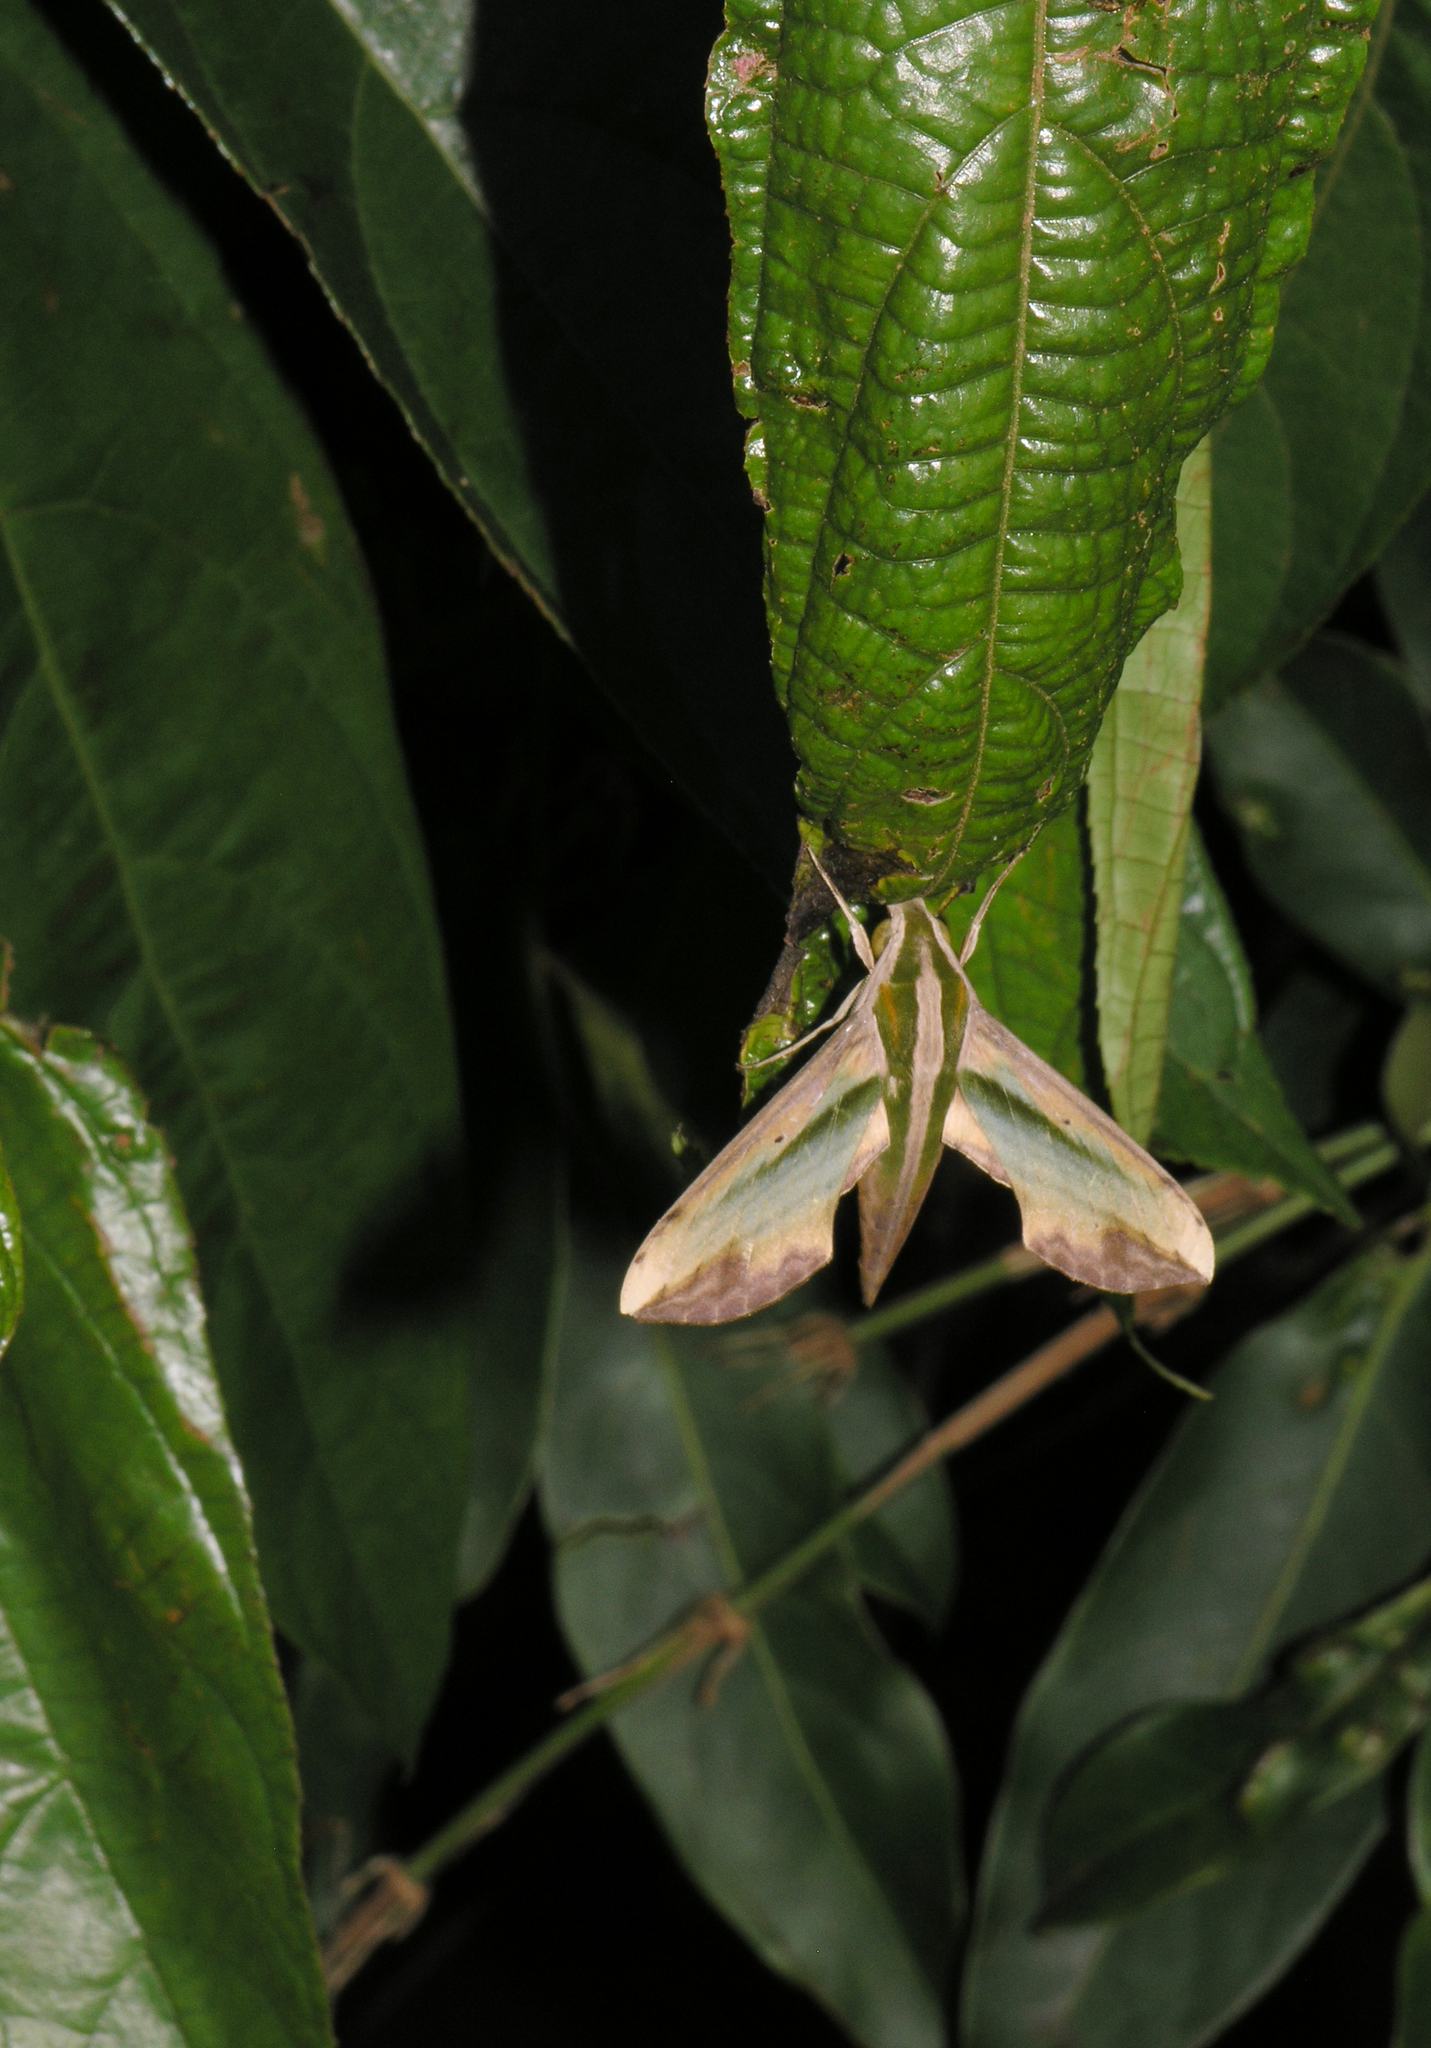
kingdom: Animalia
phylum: Arthropoda
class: Insecta
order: Lepidoptera
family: Sphingidae
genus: Pergesa
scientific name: Pergesa acteus
